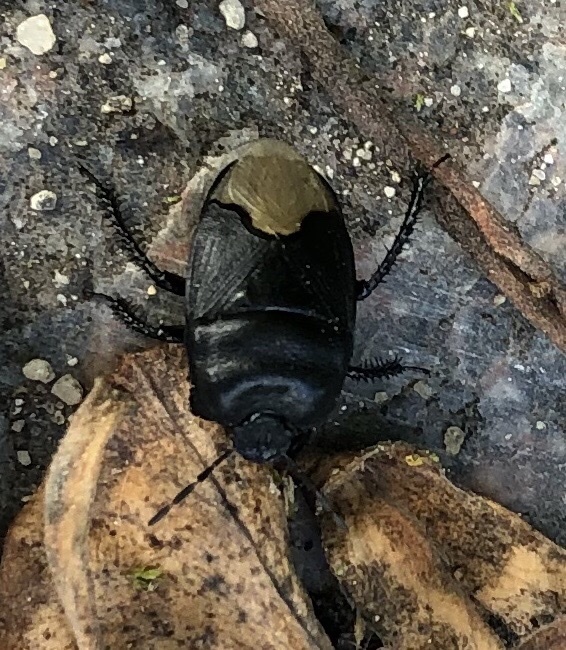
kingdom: Animalia
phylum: Arthropoda
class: Insecta
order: Hemiptera
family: Cydnidae
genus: Cydnus
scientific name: Cydnus aterrimus
